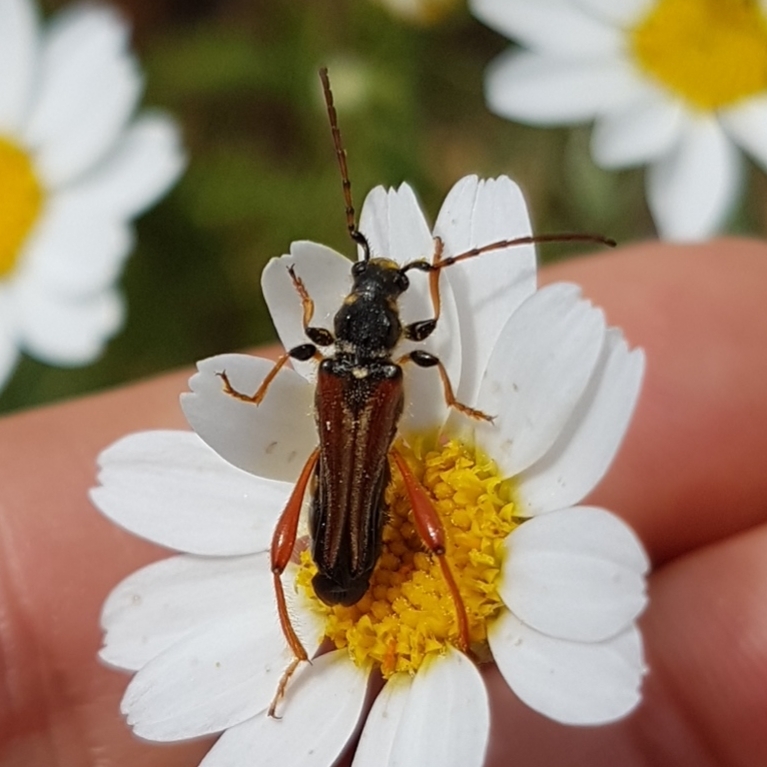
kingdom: Animalia
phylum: Arthropoda
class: Insecta
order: Coleoptera
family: Cerambycidae
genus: Stenopterus
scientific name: Stenopterus rufus
